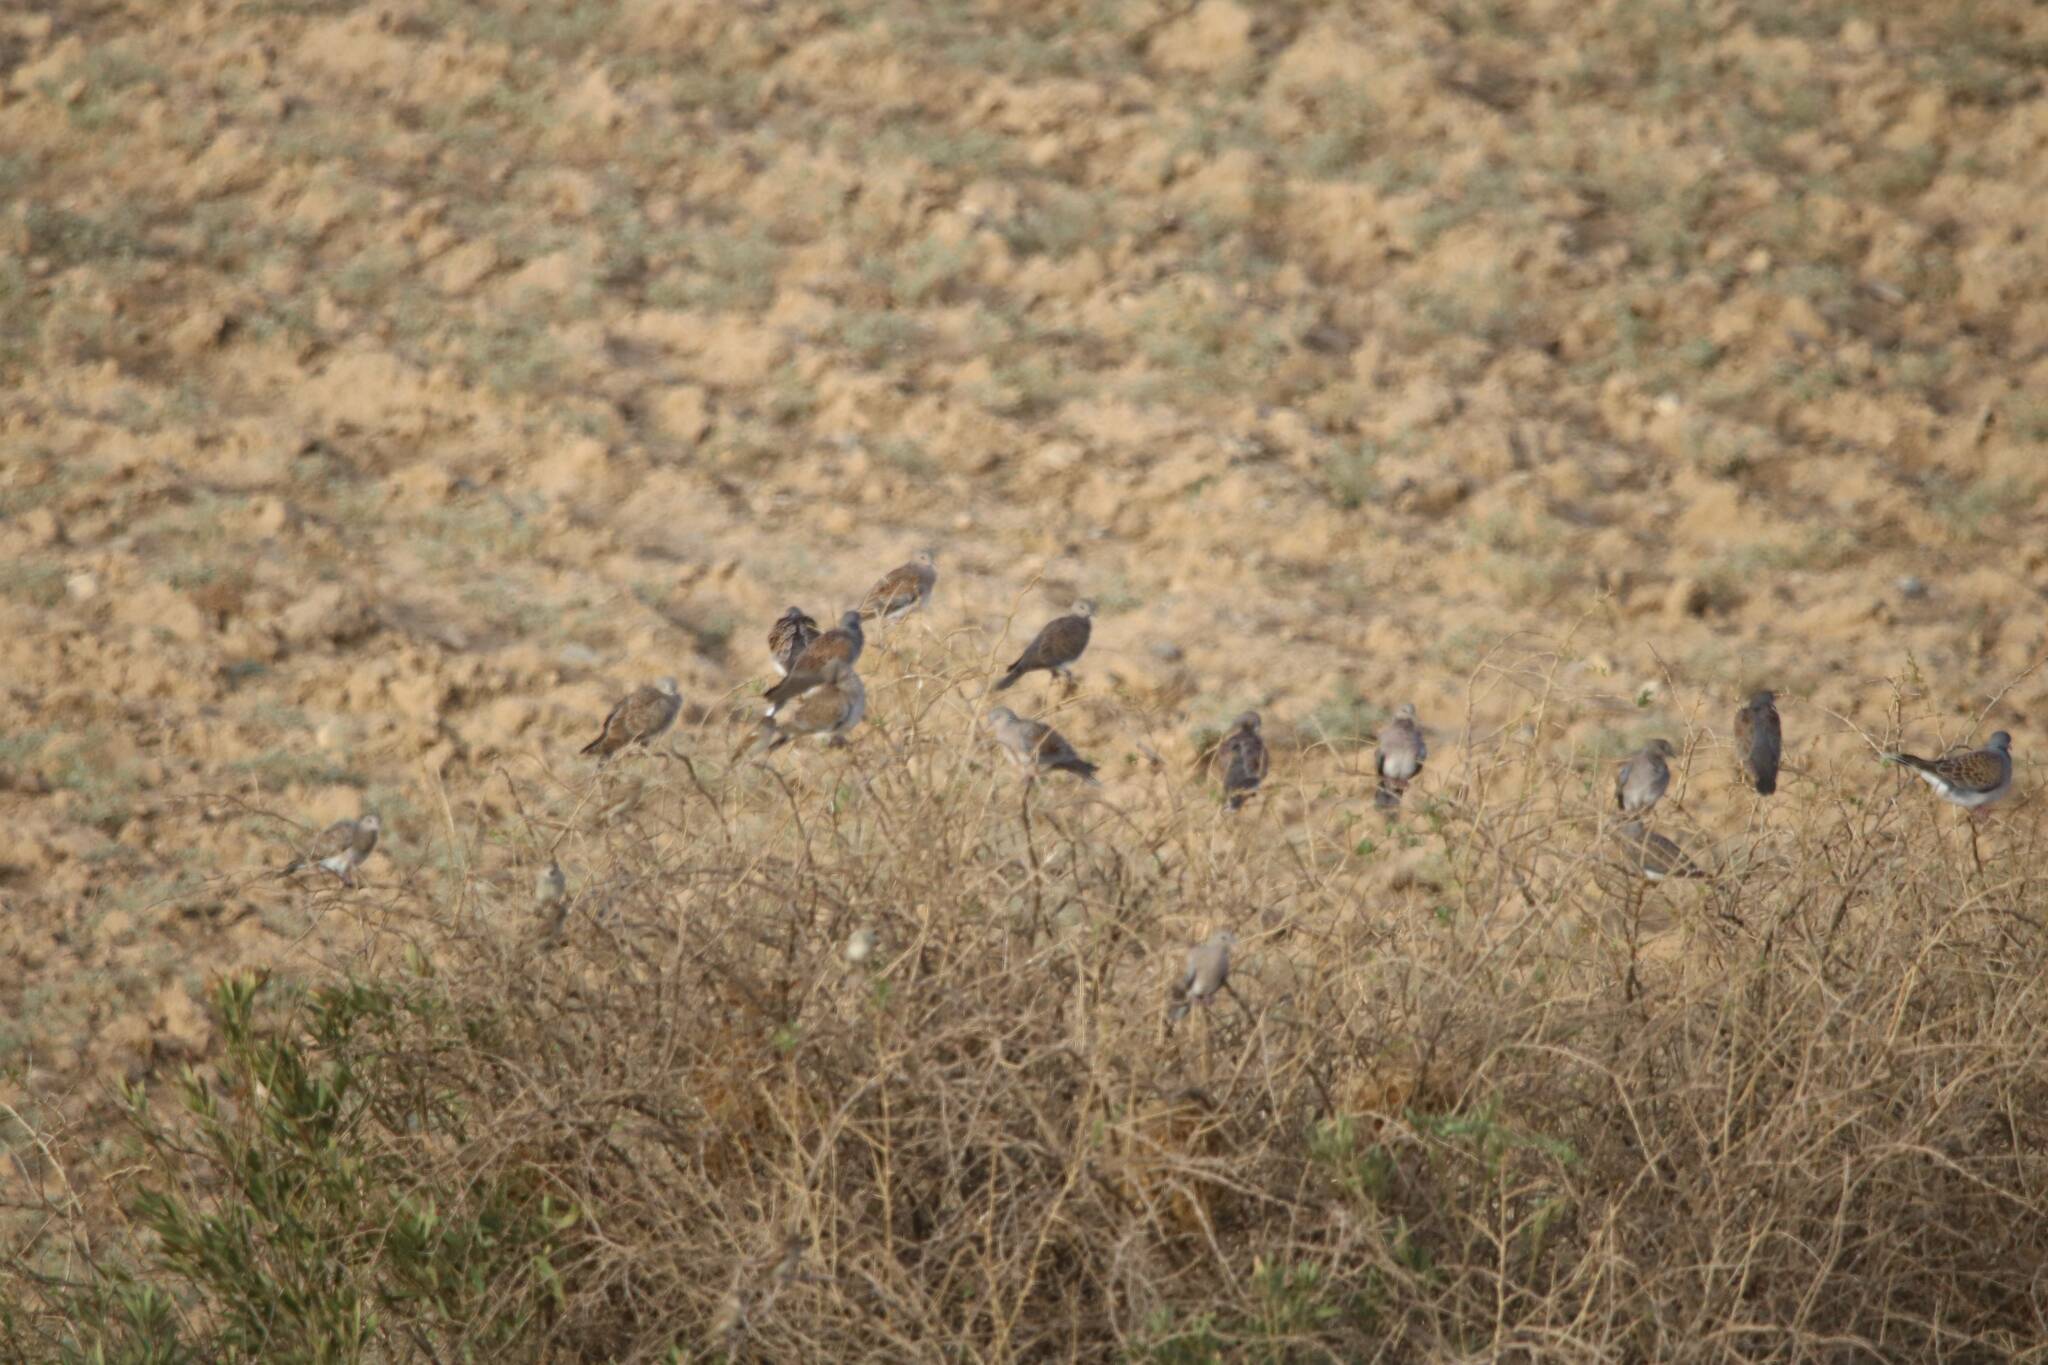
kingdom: Animalia
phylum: Chordata
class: Aves
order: Columbiformes
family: Columbidae
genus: Streptopelia
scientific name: Streptopelia turtur
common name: European turtle dove
